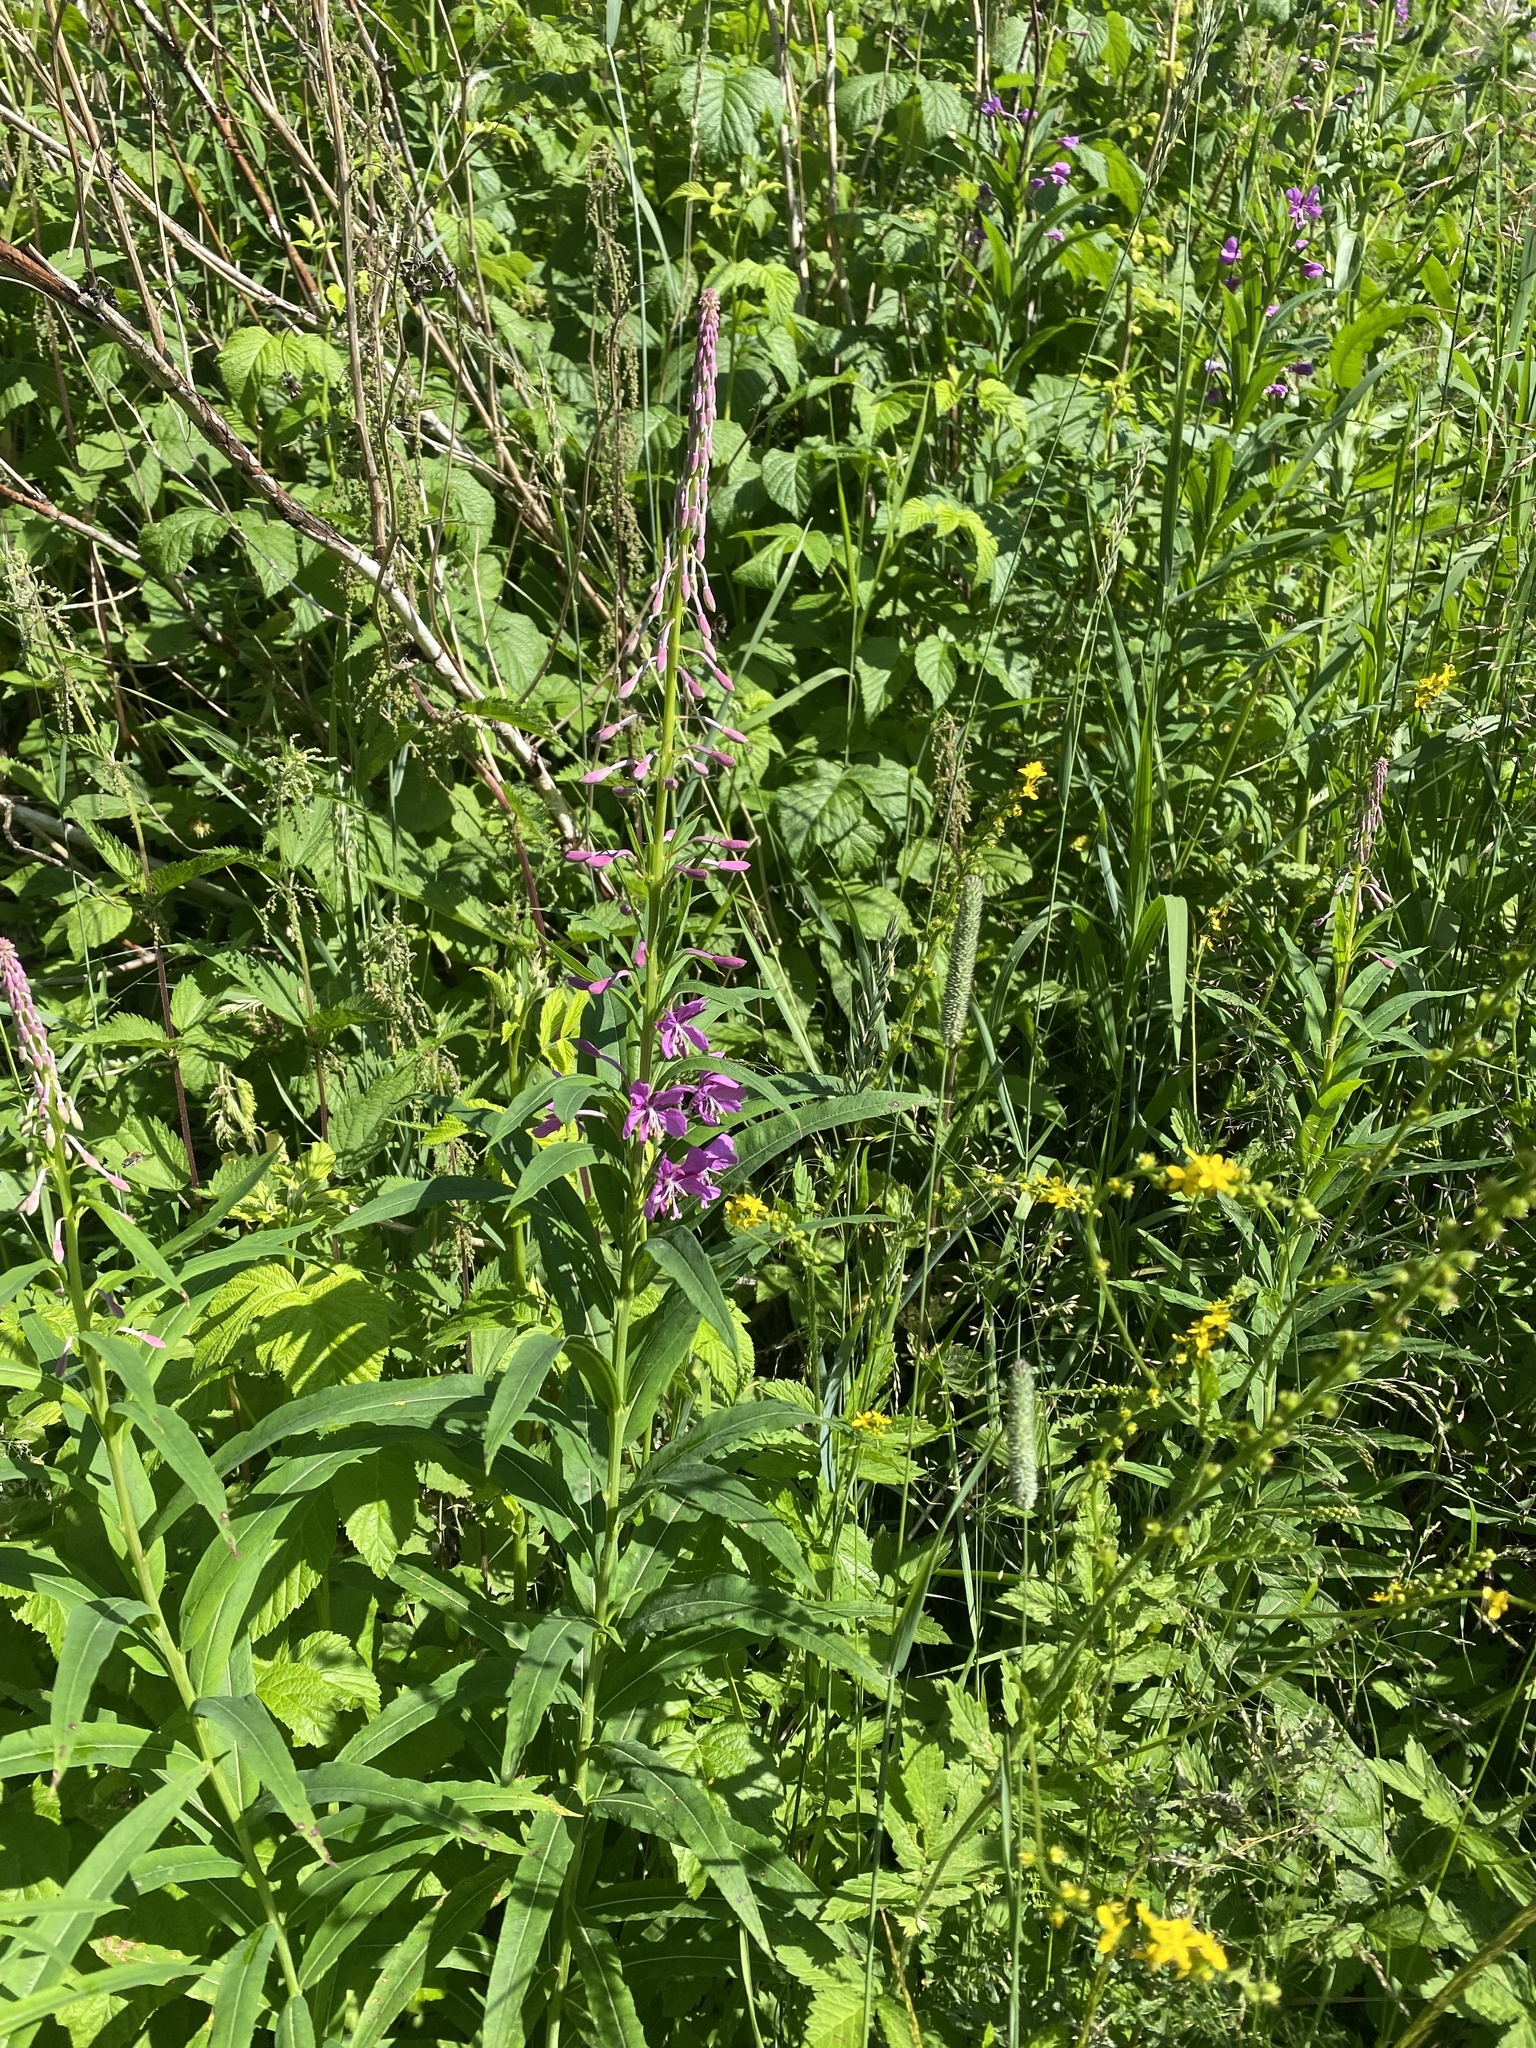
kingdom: Plantae
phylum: Tracheophyta
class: Magnoliopsida
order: Myrtales
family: Onagraceae
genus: Chamaenerion
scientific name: Chamaenerion angustifolium
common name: Fireweed
